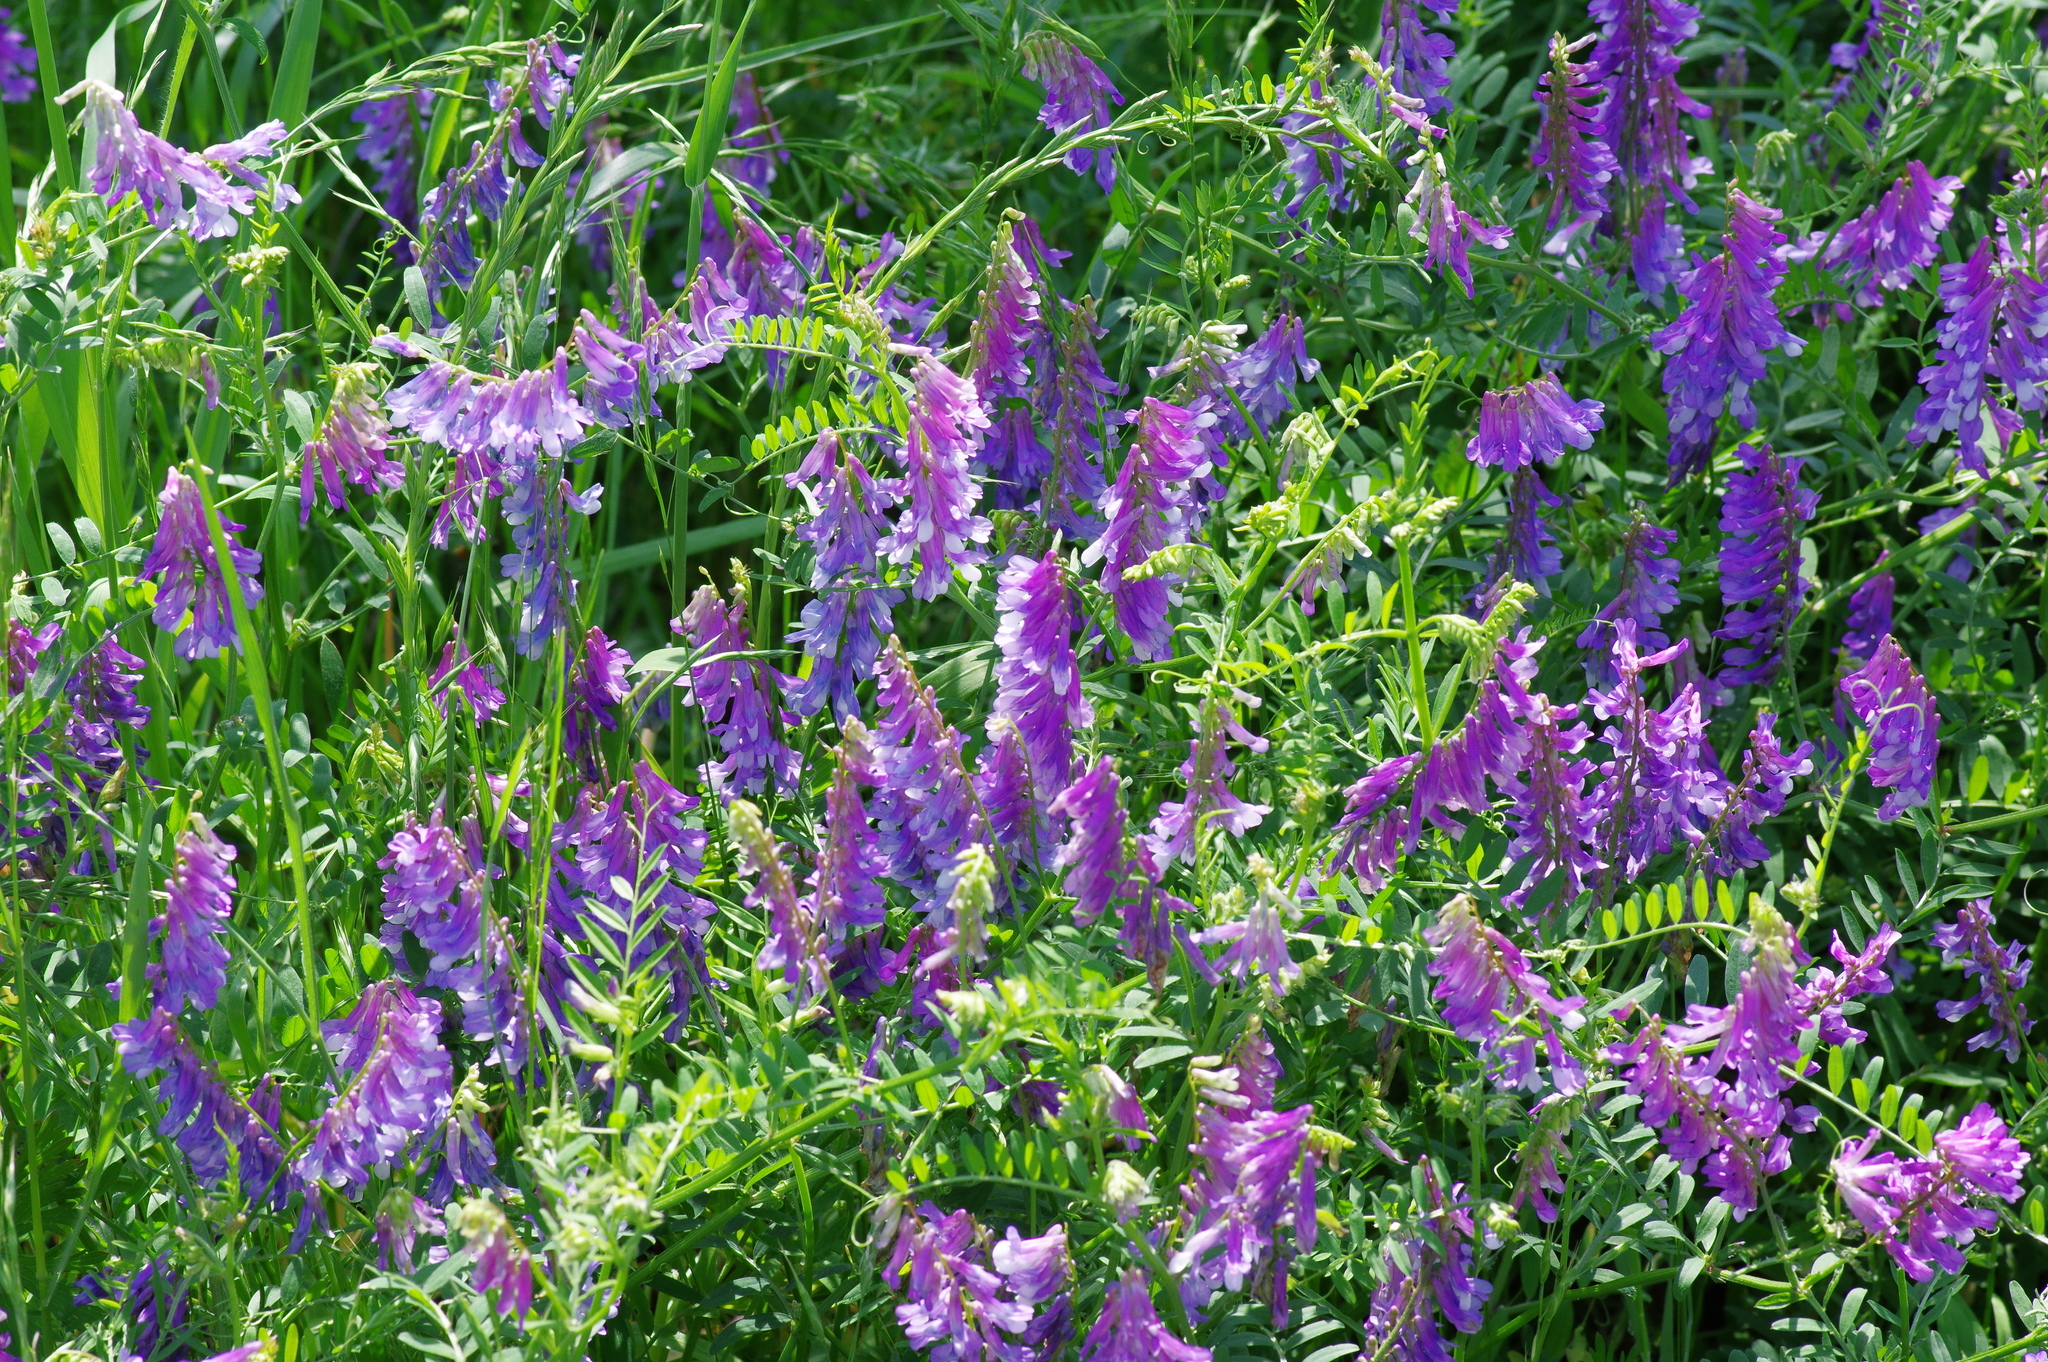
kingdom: Plantae
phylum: Tracheophyta
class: Magnoliopsida
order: Fabales
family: Fabaceae
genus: Vicia
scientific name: Vicia villosa
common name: Fodder vetch
